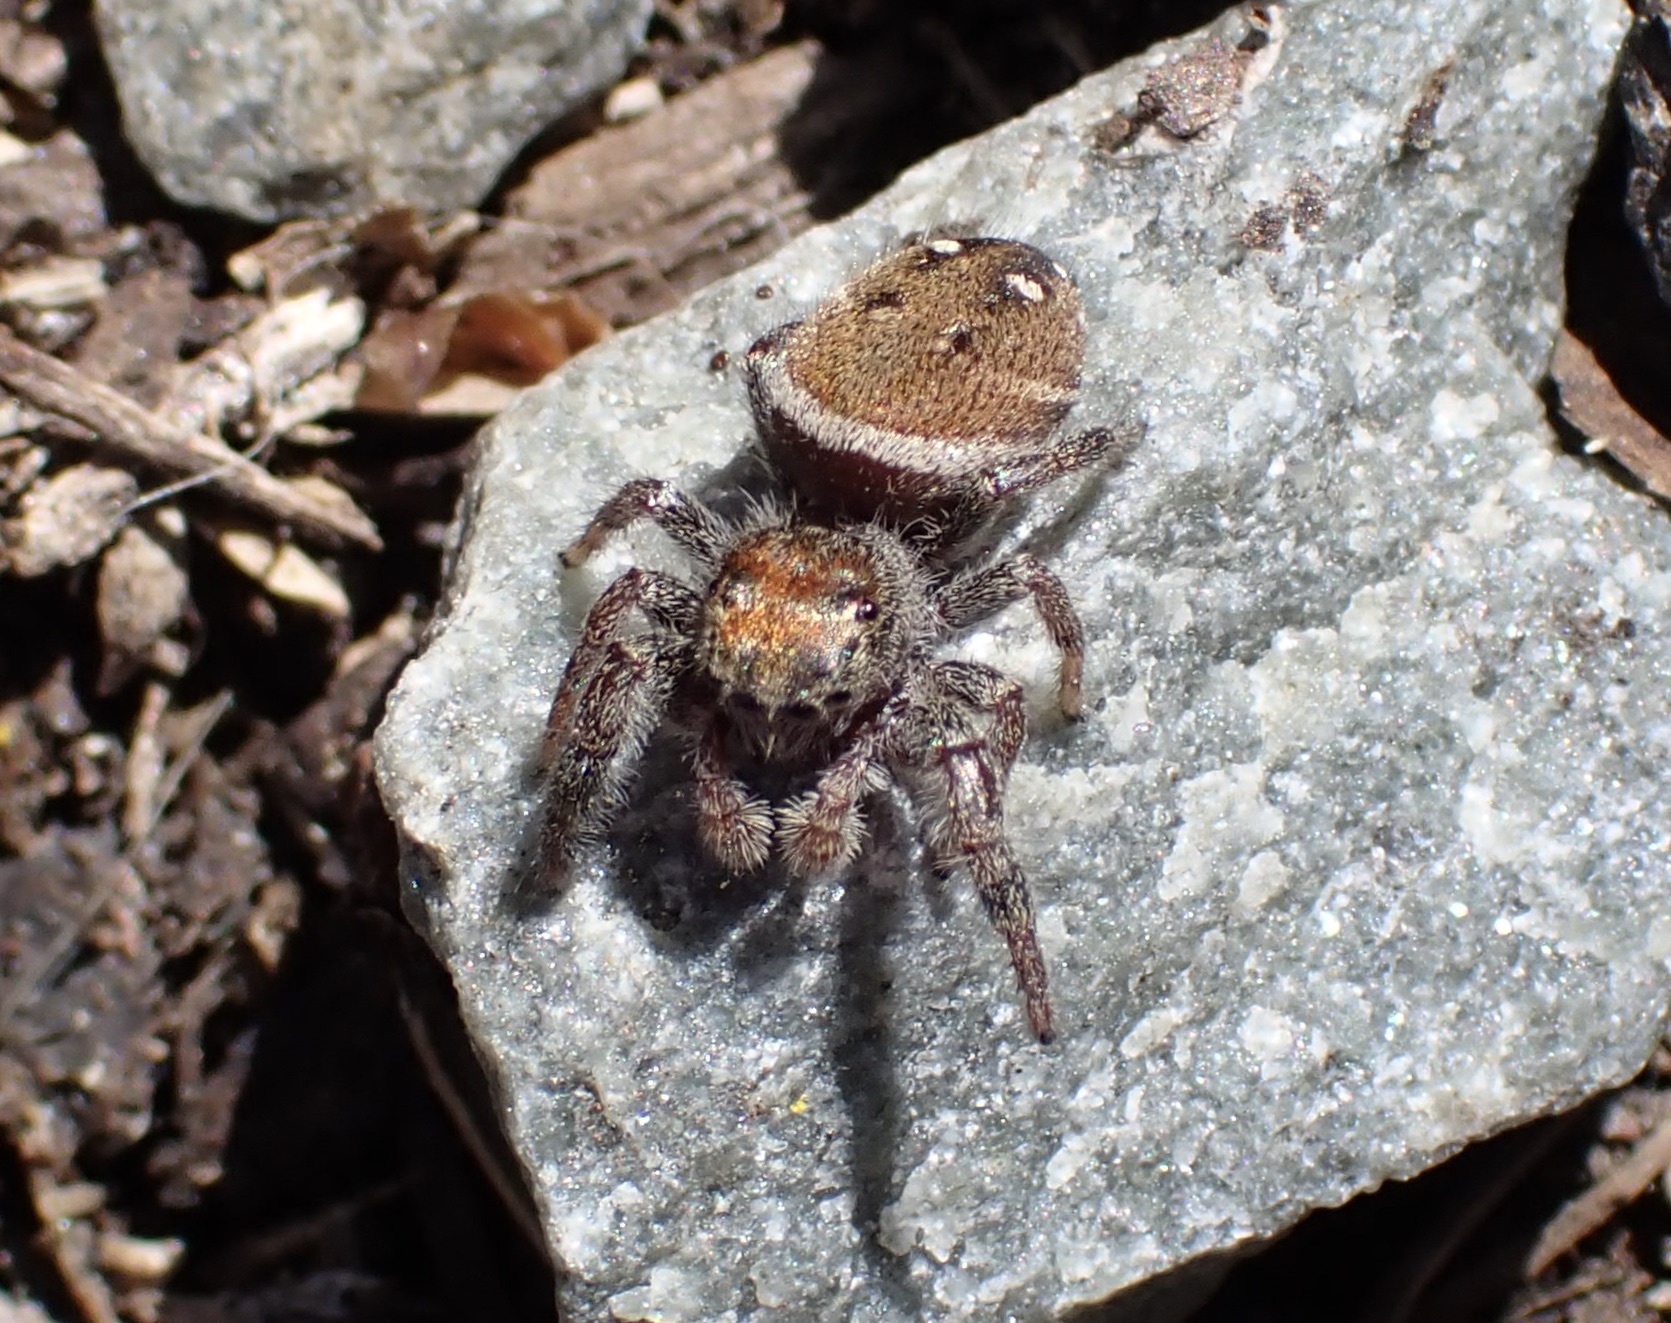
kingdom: Animalia
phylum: Arthropoda
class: Arachnida
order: Araneae
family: Salticidae
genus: Phidippus
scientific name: Phidippus whitmani
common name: Whitman's jumping spider
